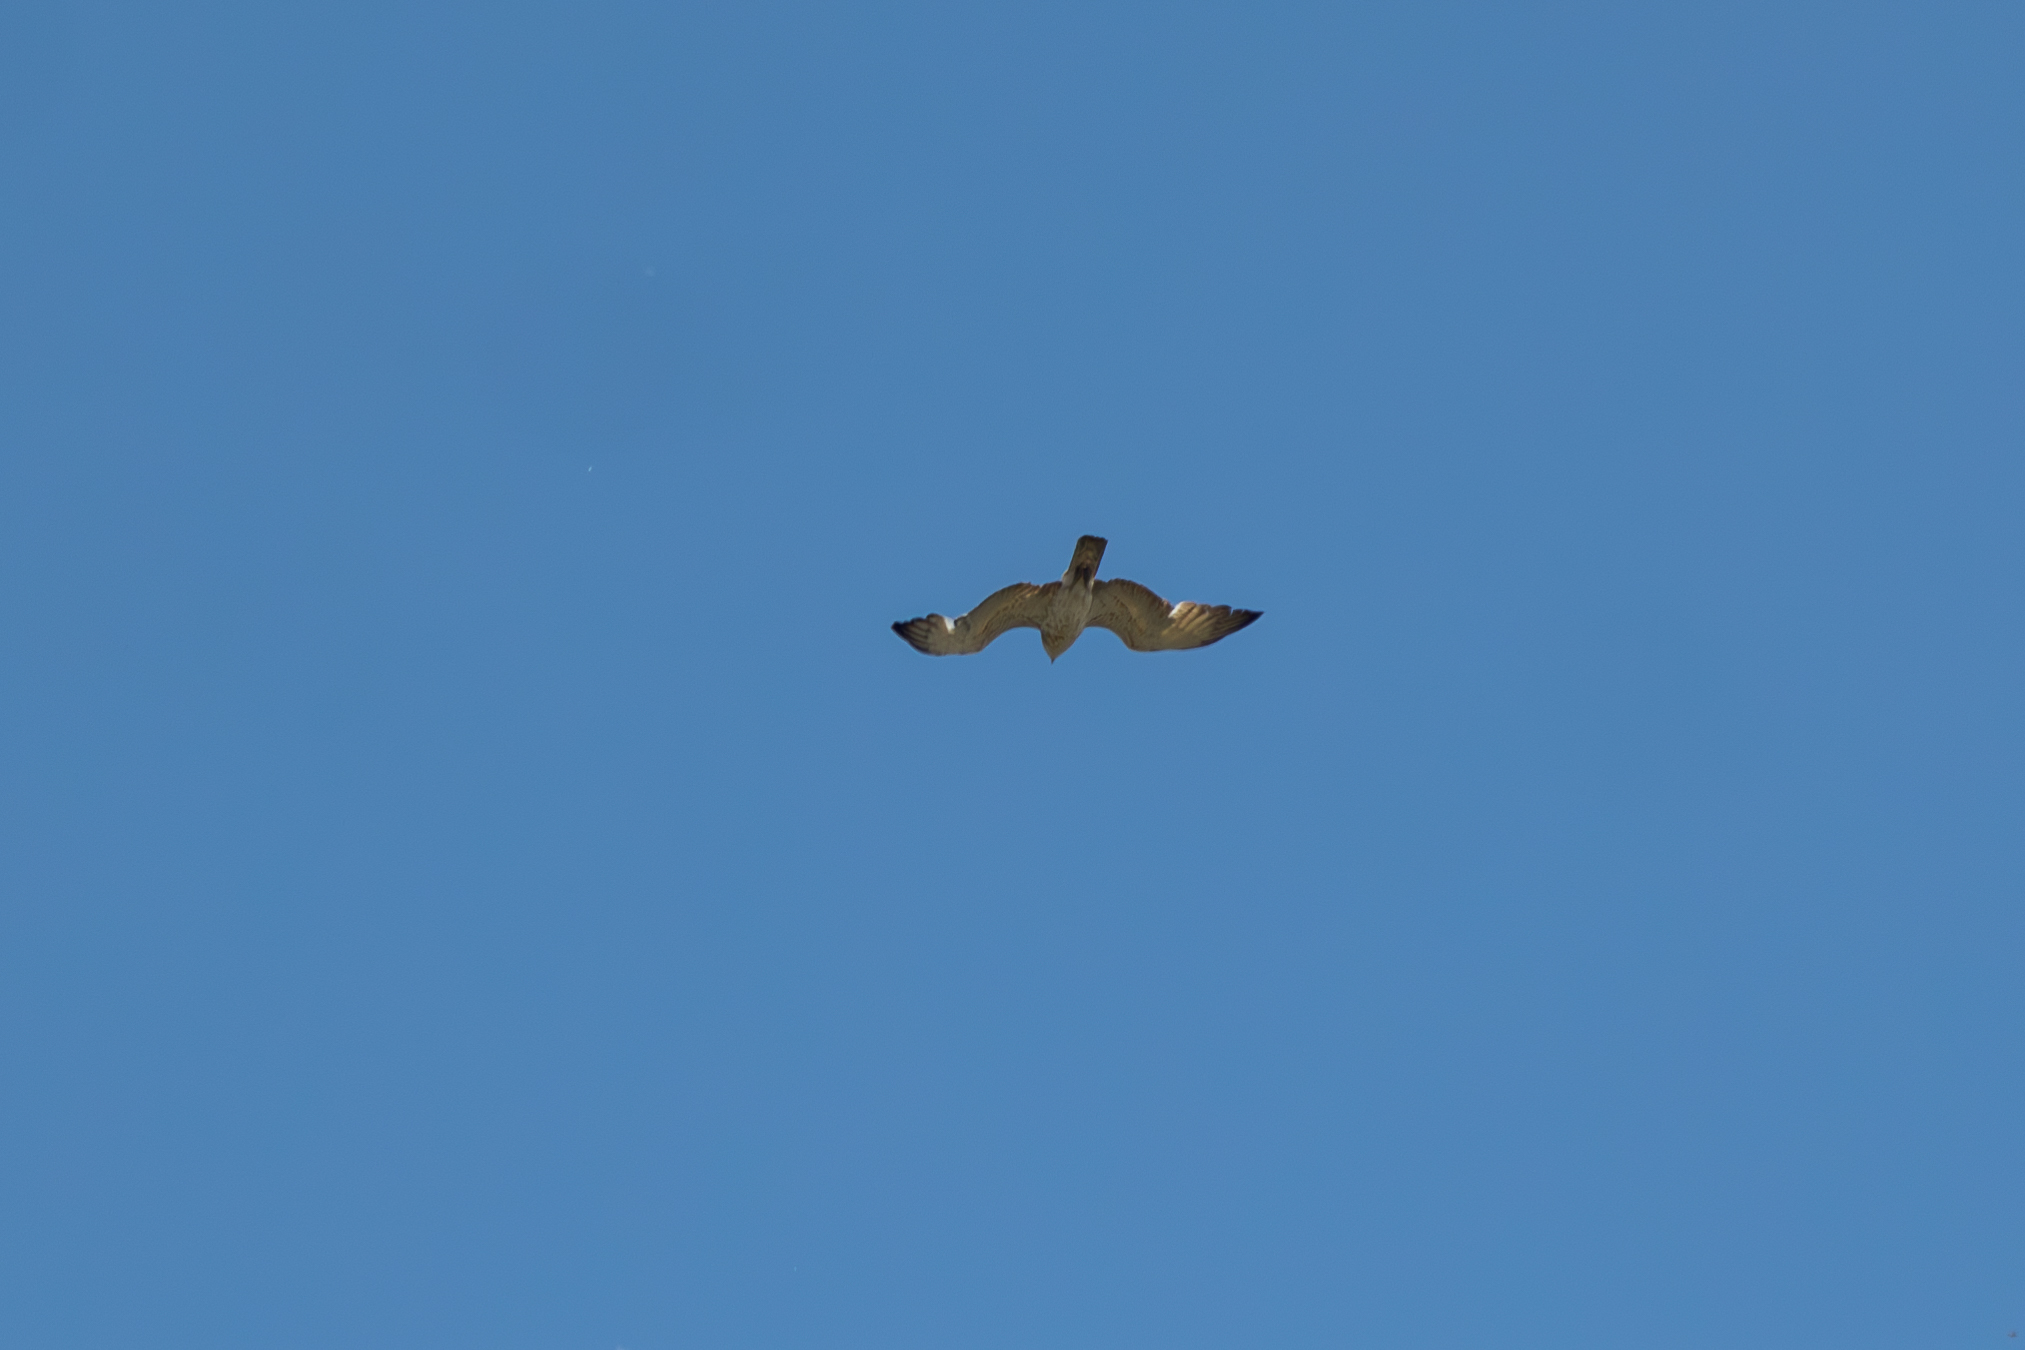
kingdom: Animalia
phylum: Chordata
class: Aves
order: Accipitriformes
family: Accipitridae
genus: Circaetus
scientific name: Circaetus gallicus
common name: Short-toed snake eagle
